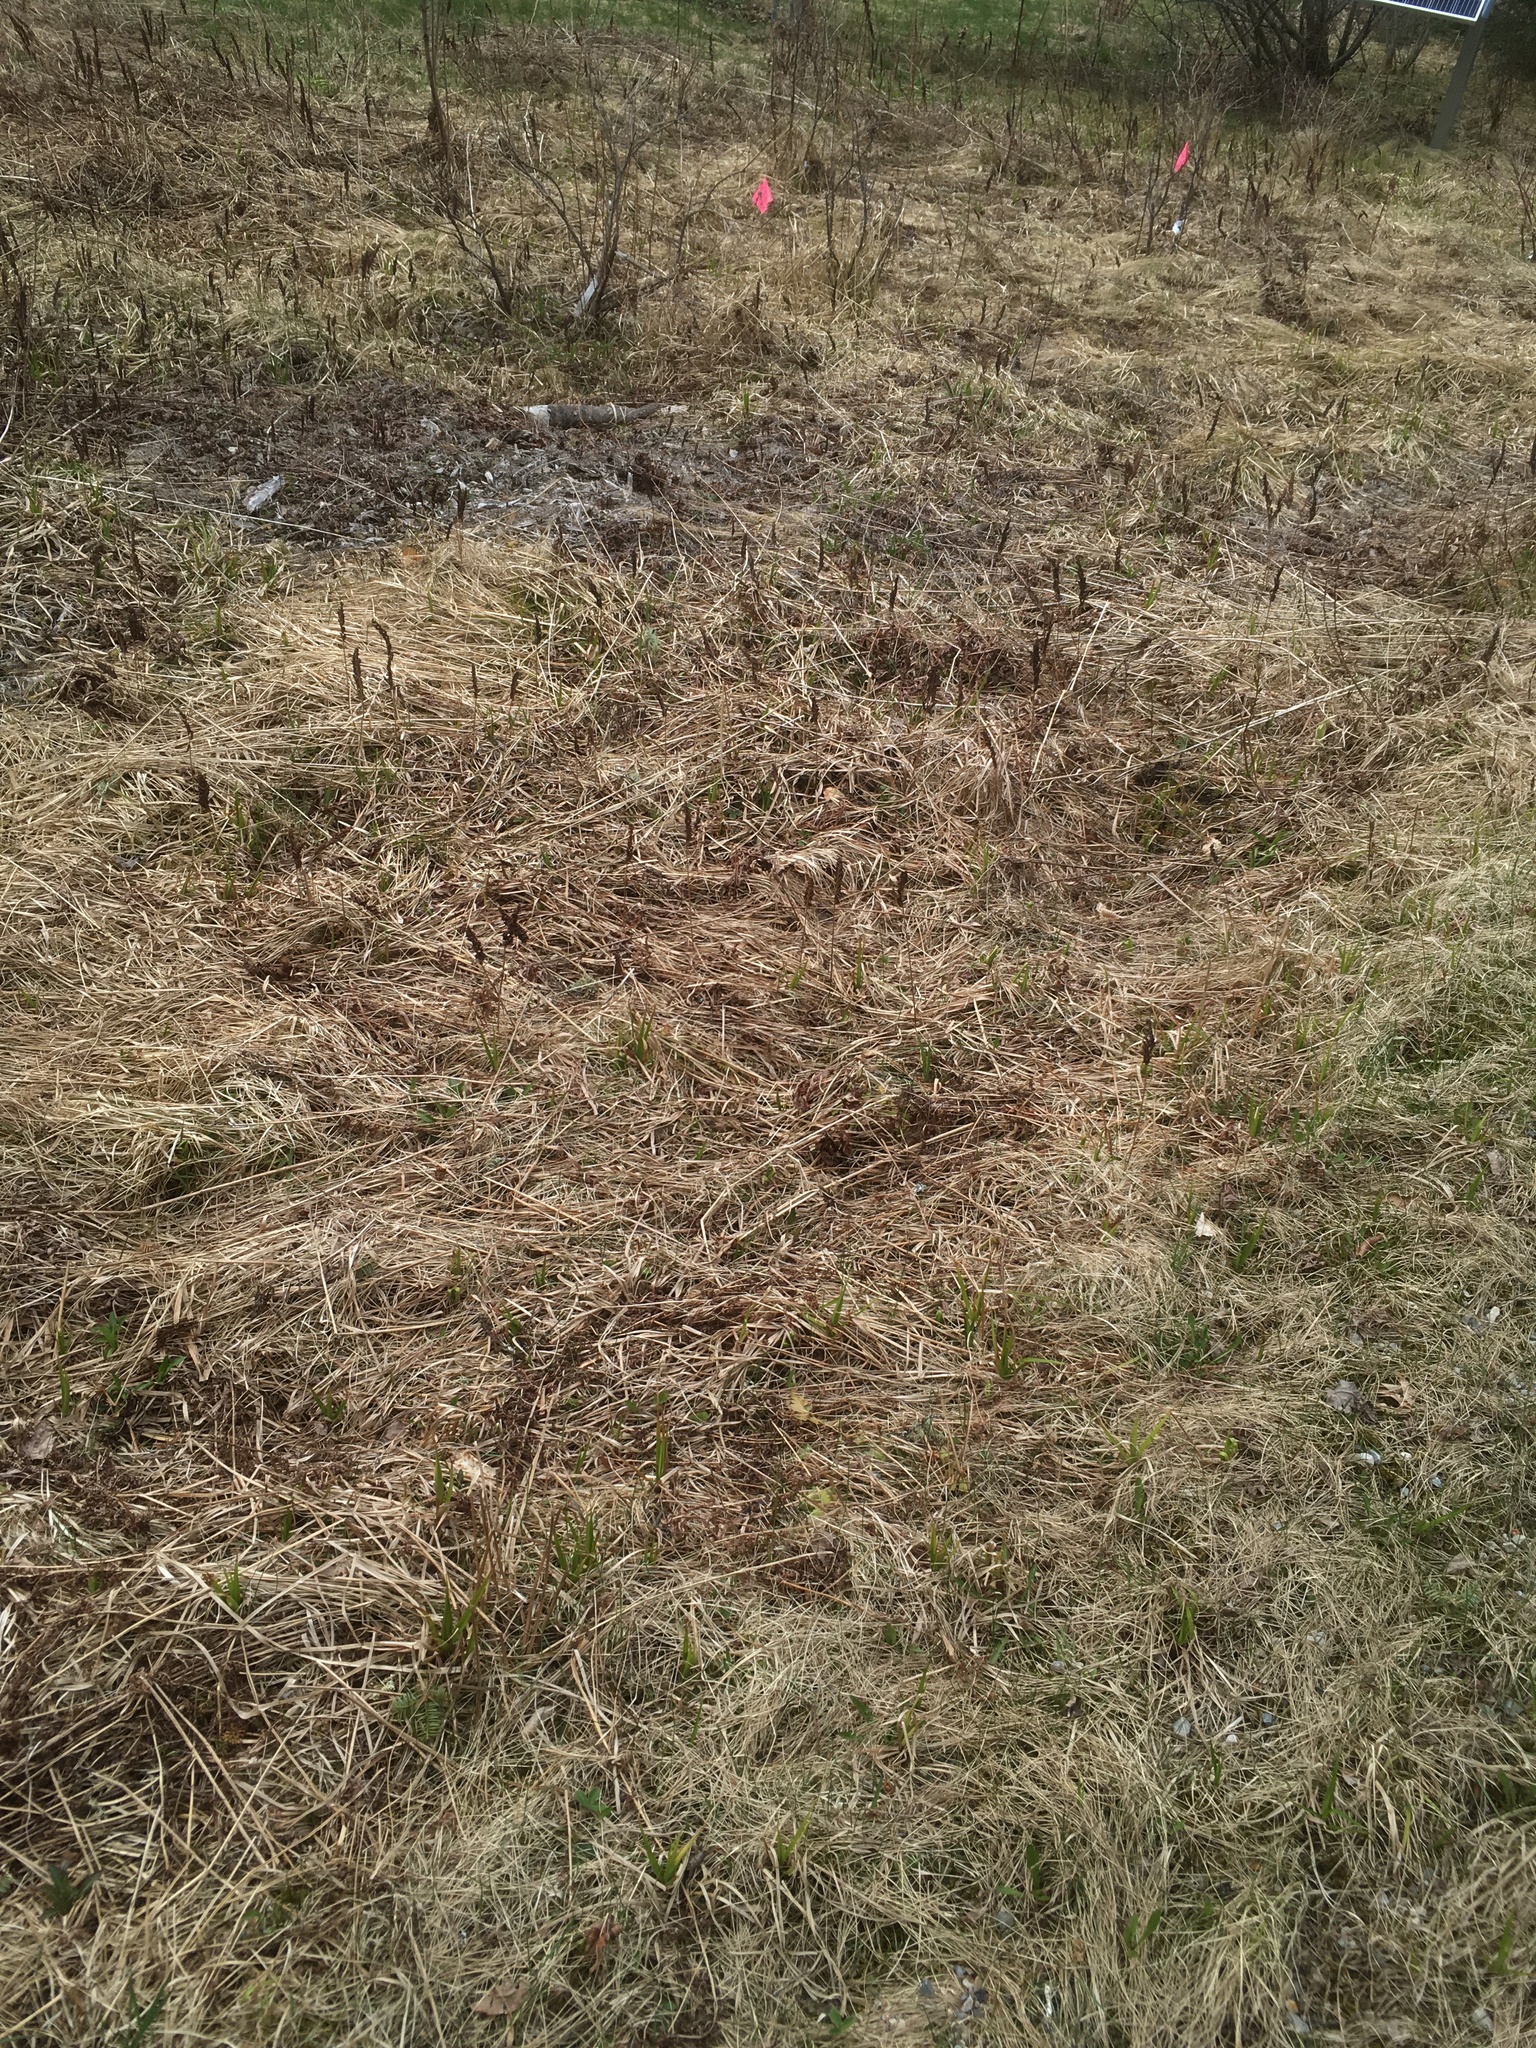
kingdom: Plantae
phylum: Tracheophyta
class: Polypodiopsida
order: Polypodiales
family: Onocleaceae
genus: Onoclea
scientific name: Onoclea sensibilis
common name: Sensitive fern
